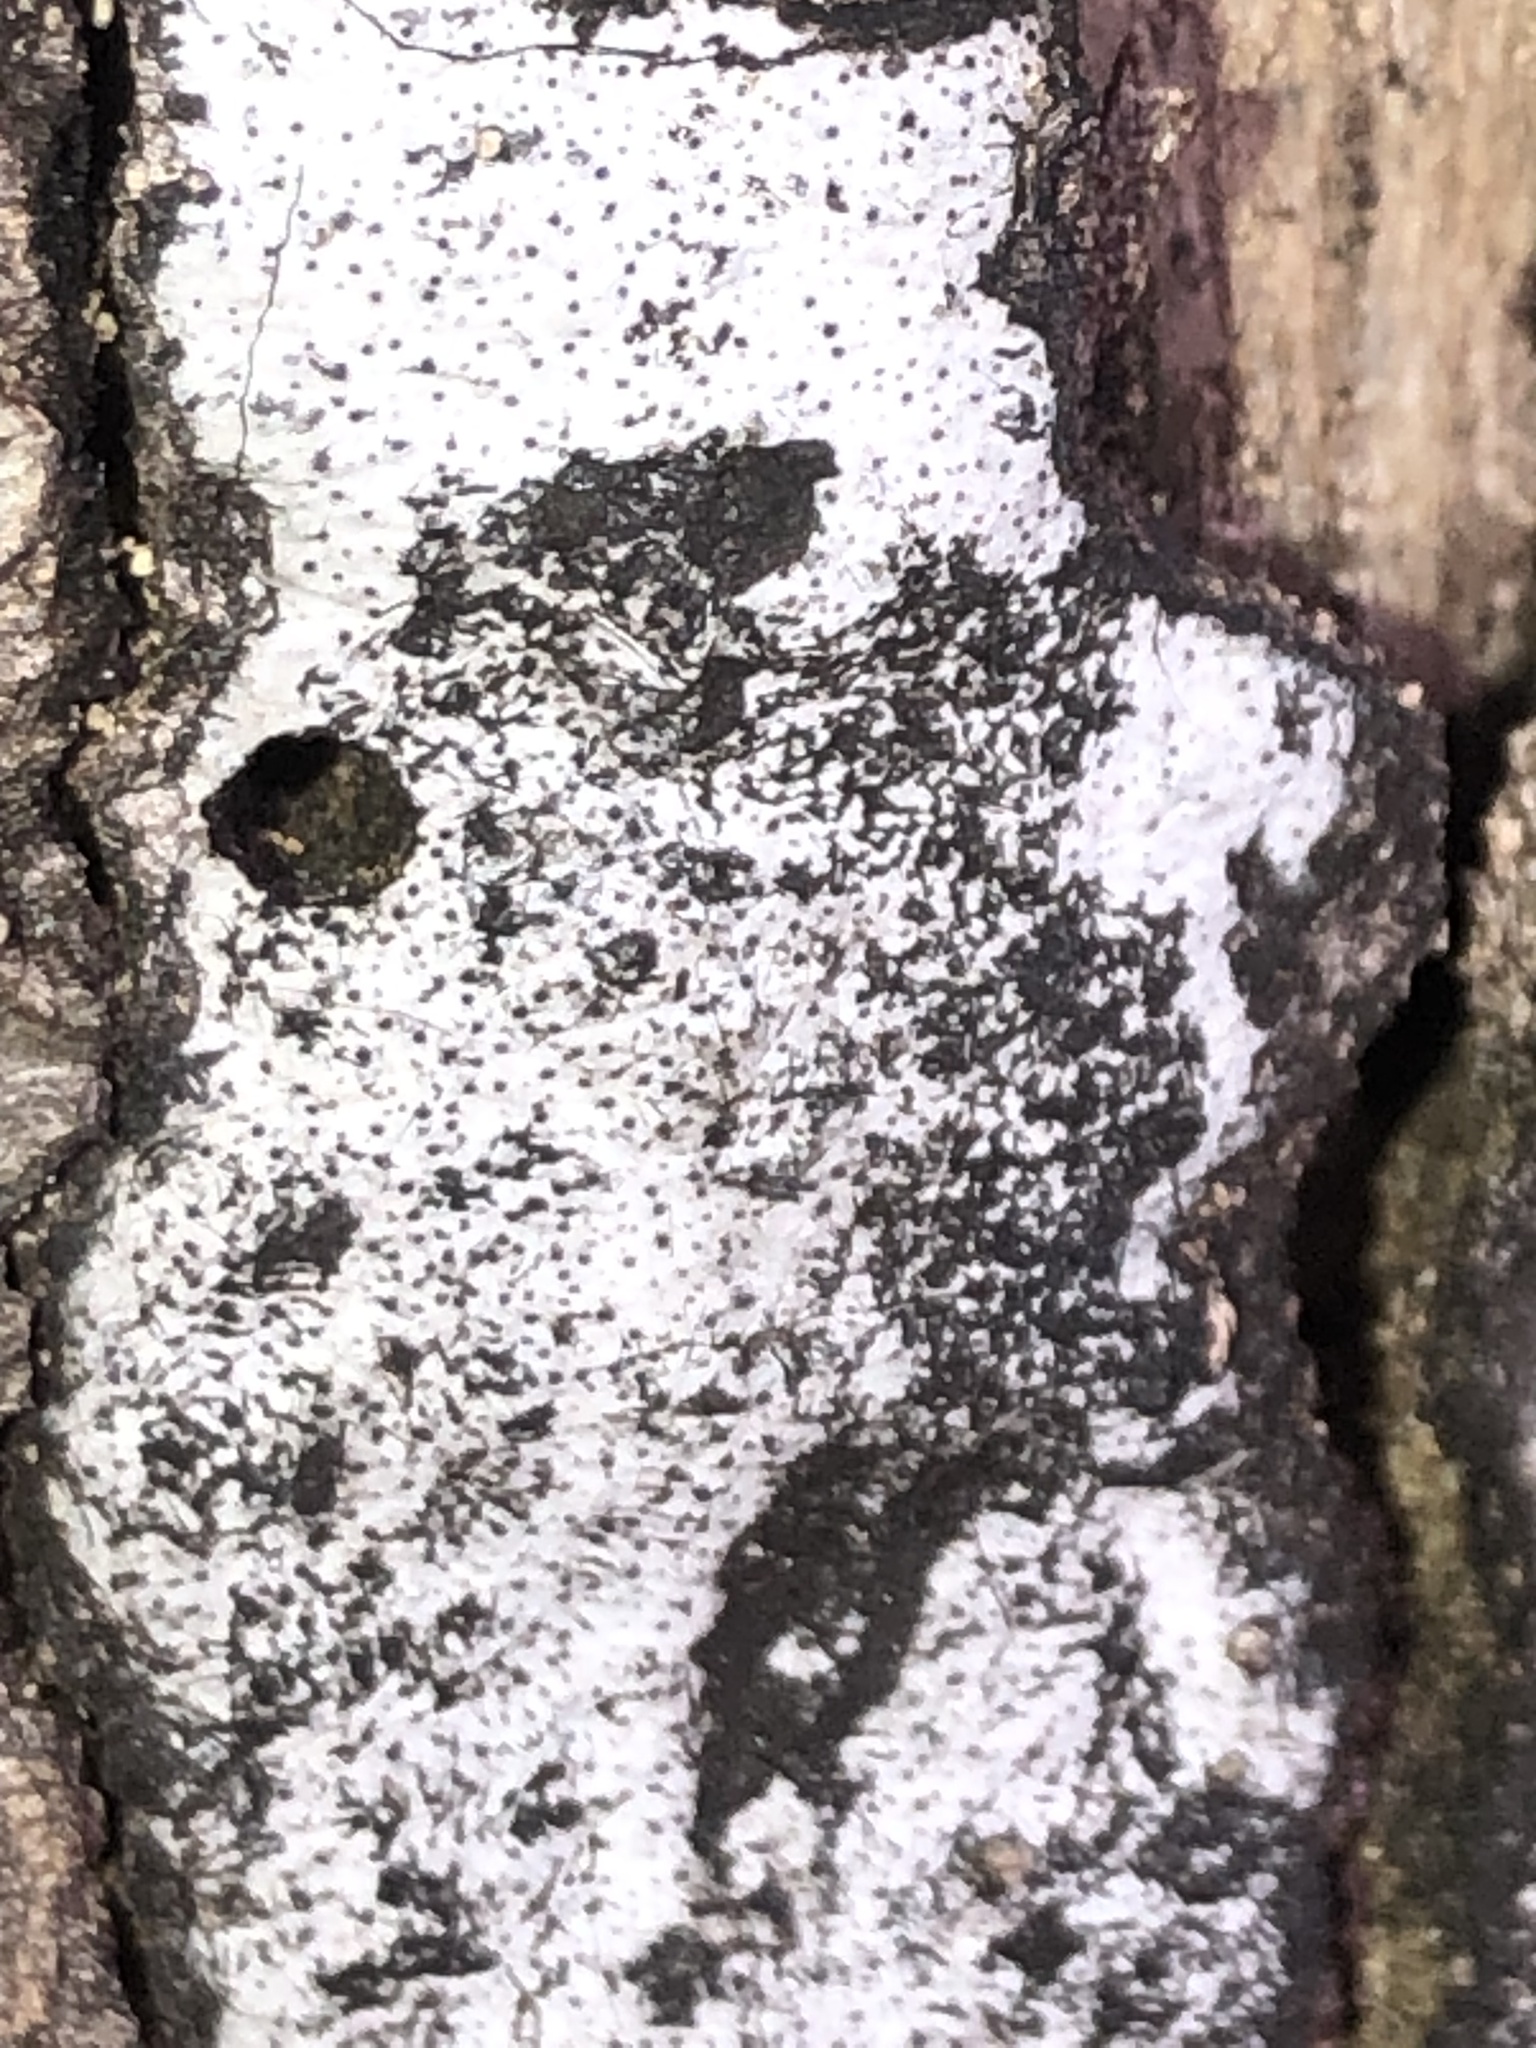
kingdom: Fungi
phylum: Ascomycota
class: Sordariomycetes
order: Xylariales
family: Graphostromataceae
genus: Biscogniauxia
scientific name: Biscogniauxia atropunctata
